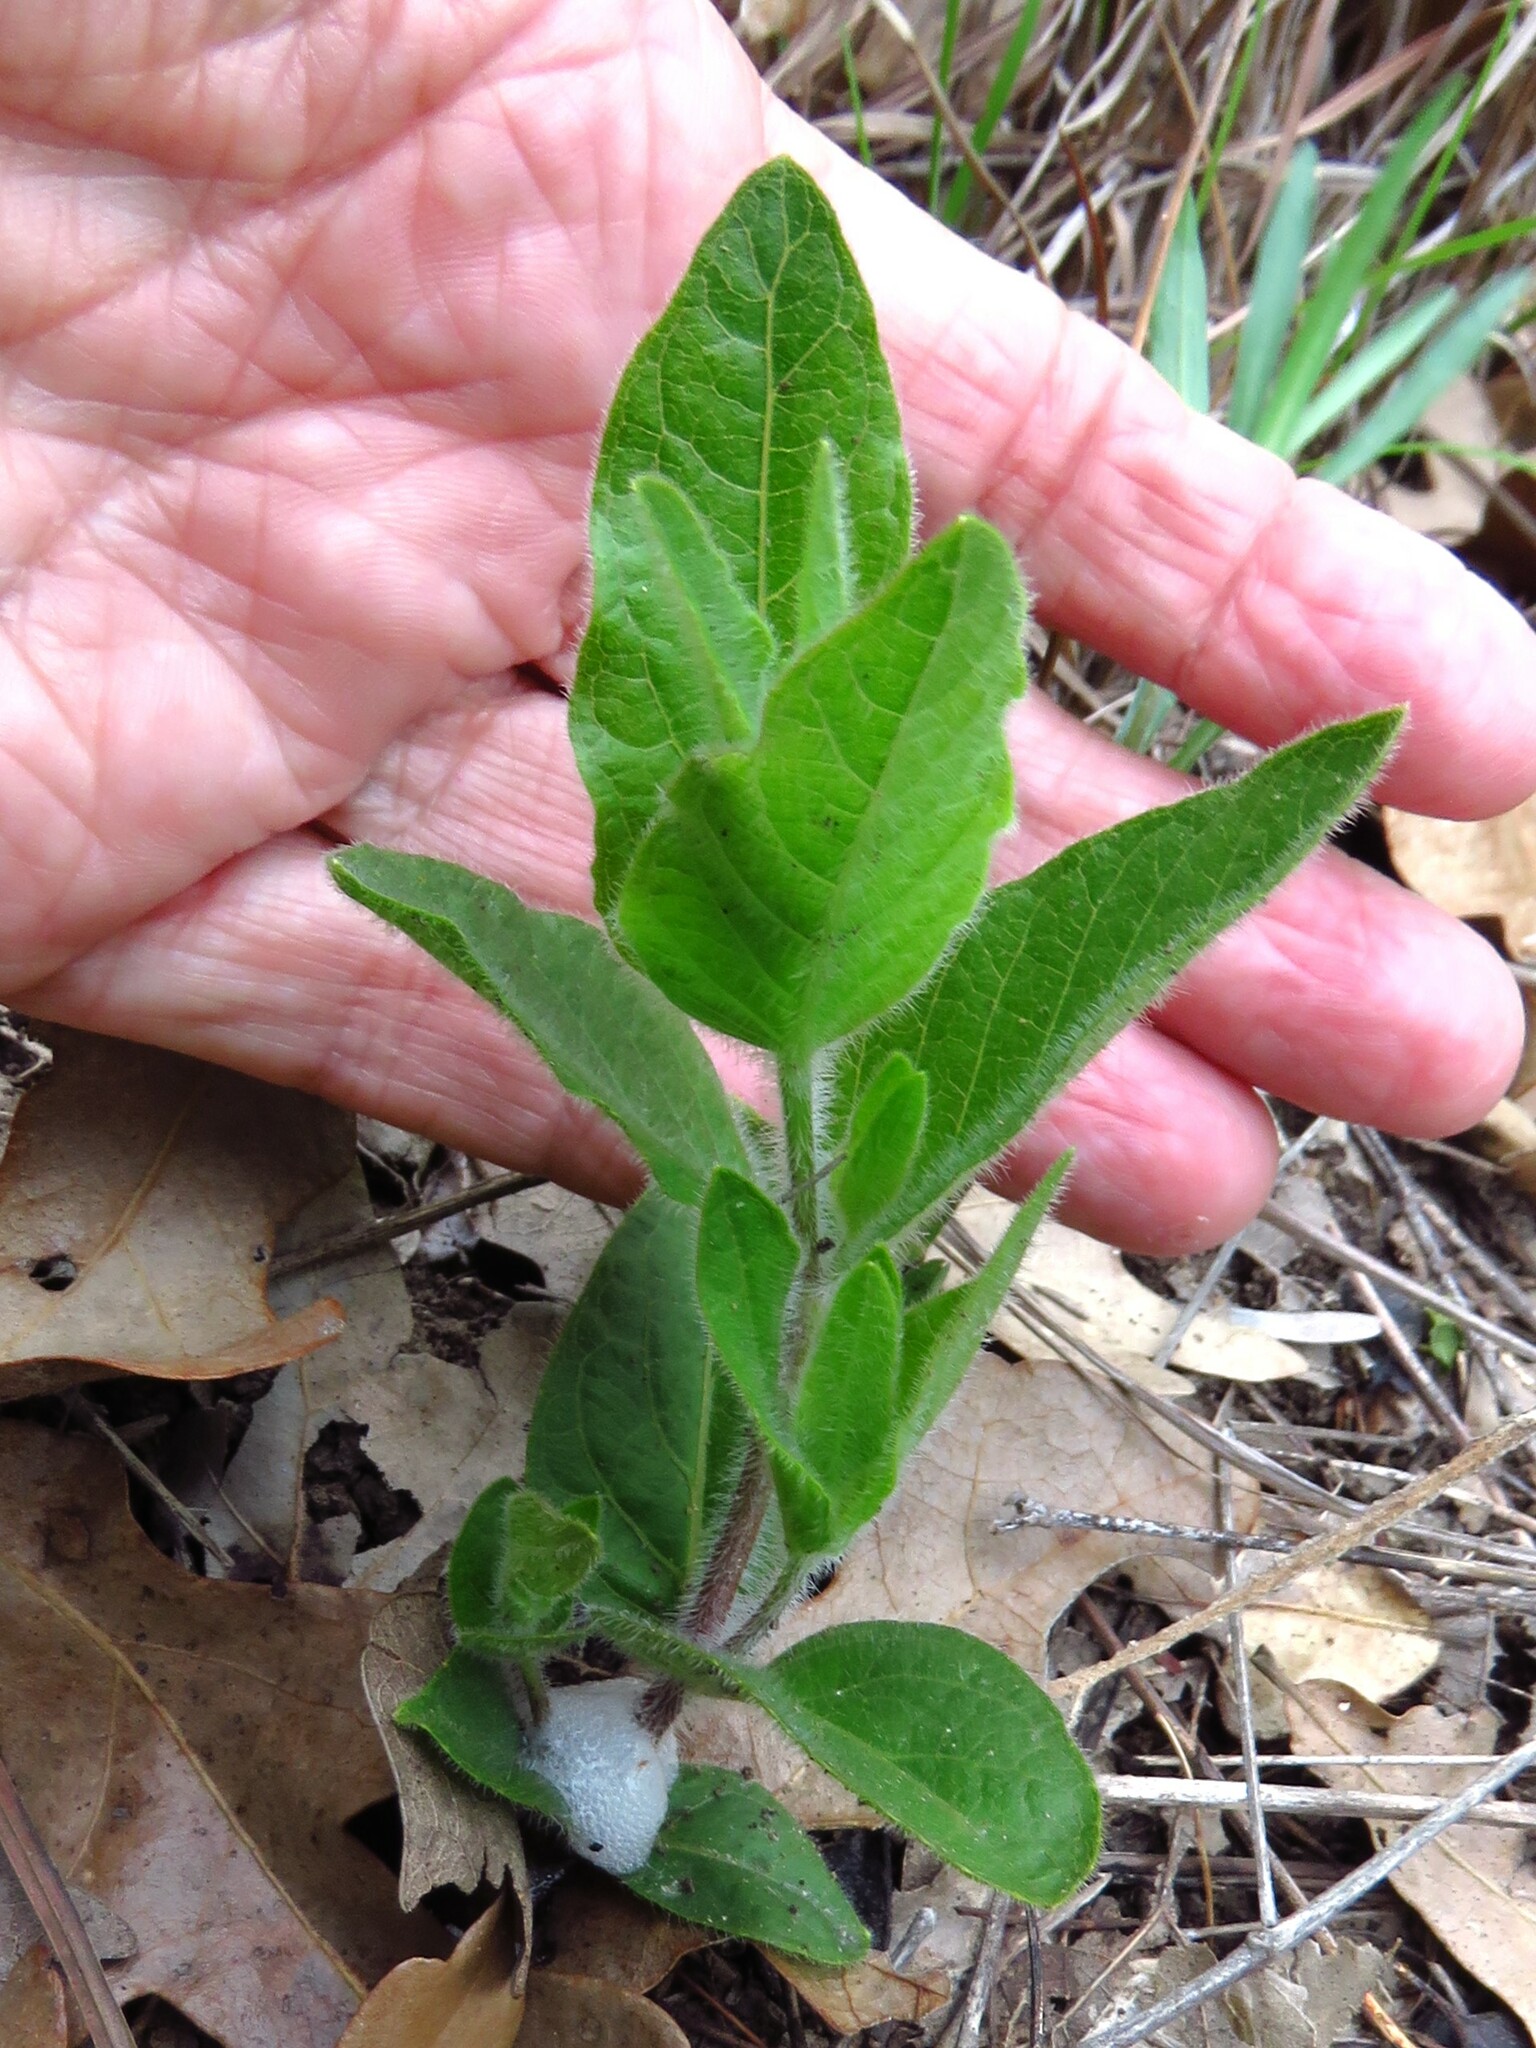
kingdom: Plantae
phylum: Tracheophyta
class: Magnoliopsida
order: Lamiales
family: Acanthaceae
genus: Ruellia
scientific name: Ruellia humilis
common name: Fringe-leaf ruellia
